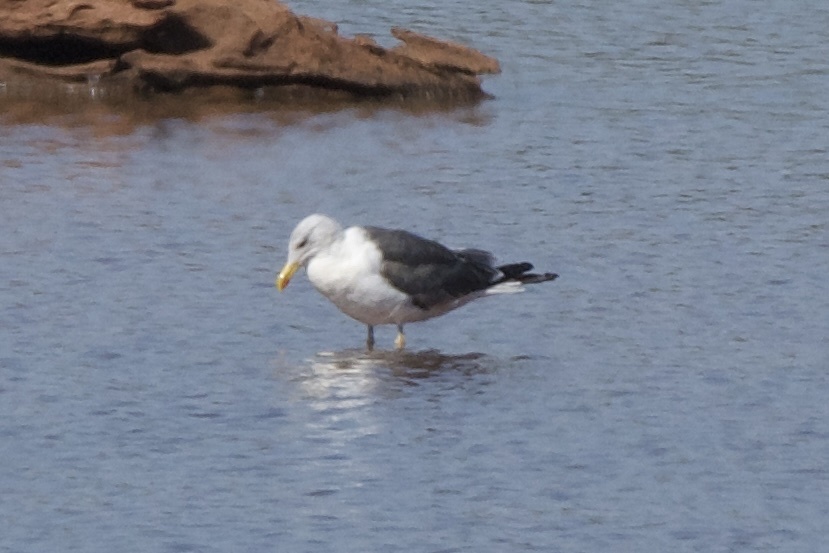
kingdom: Animalia
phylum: Chordata
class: Aves
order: Charadriiformes
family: Laridae
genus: Larus
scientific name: Larus fuscus
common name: Lesser black-backed gull
